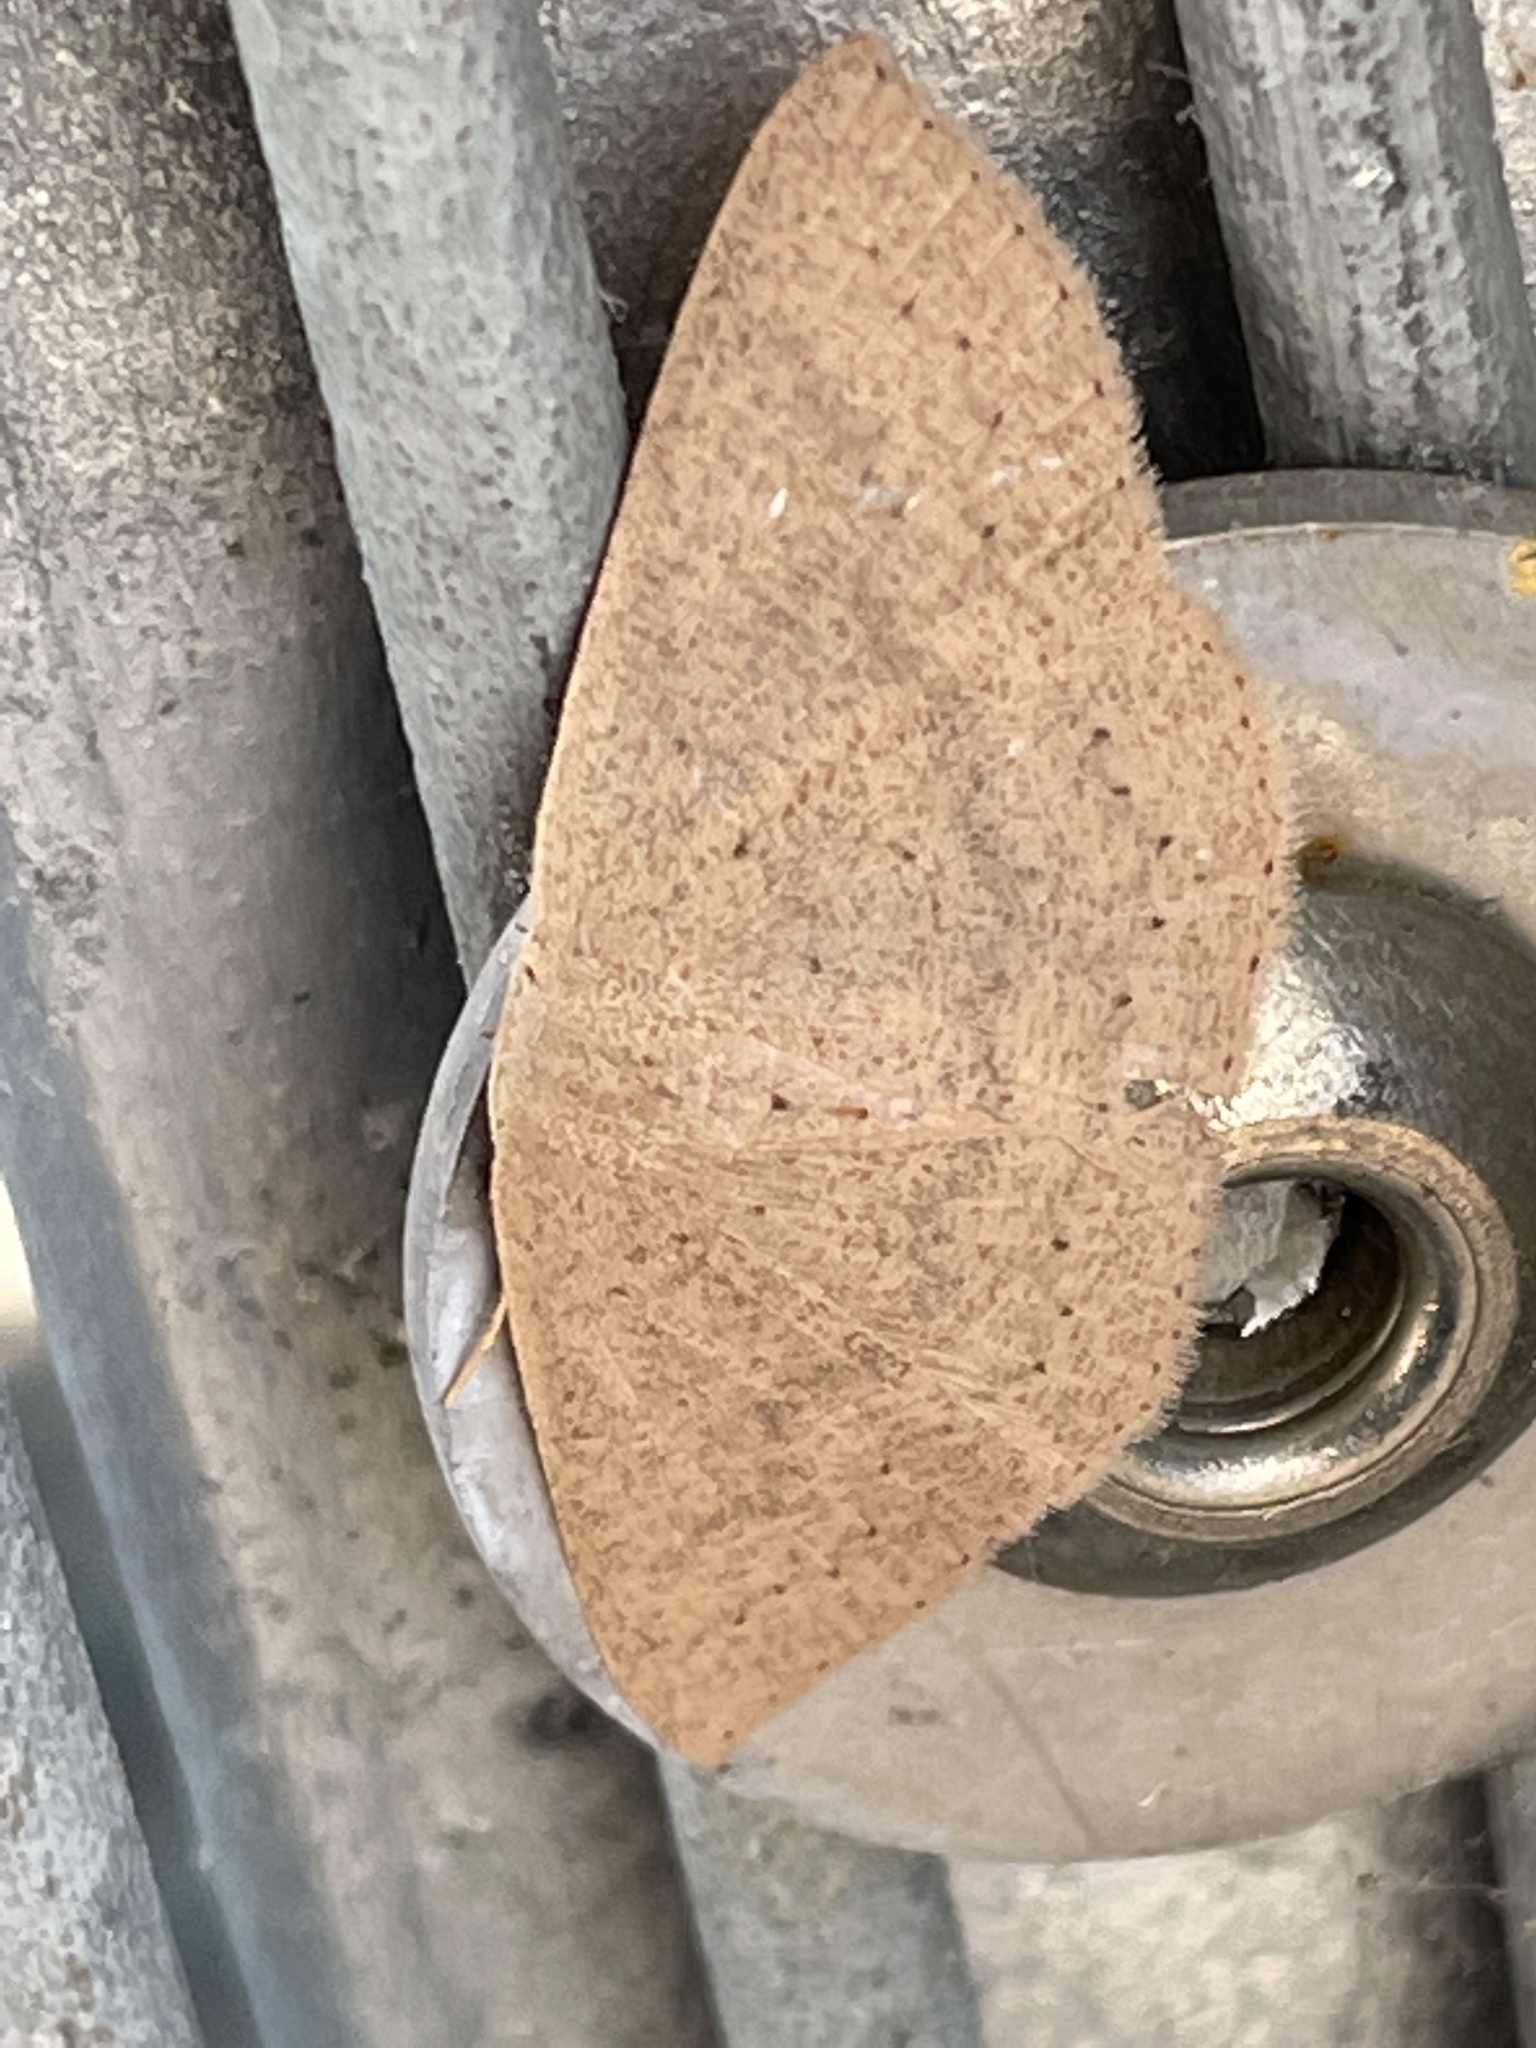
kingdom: Animalia
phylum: Arthropoda
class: Insecta
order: Lepidoptera
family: Geometridae
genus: Cyclophora
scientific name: Cyclophora obstataria
